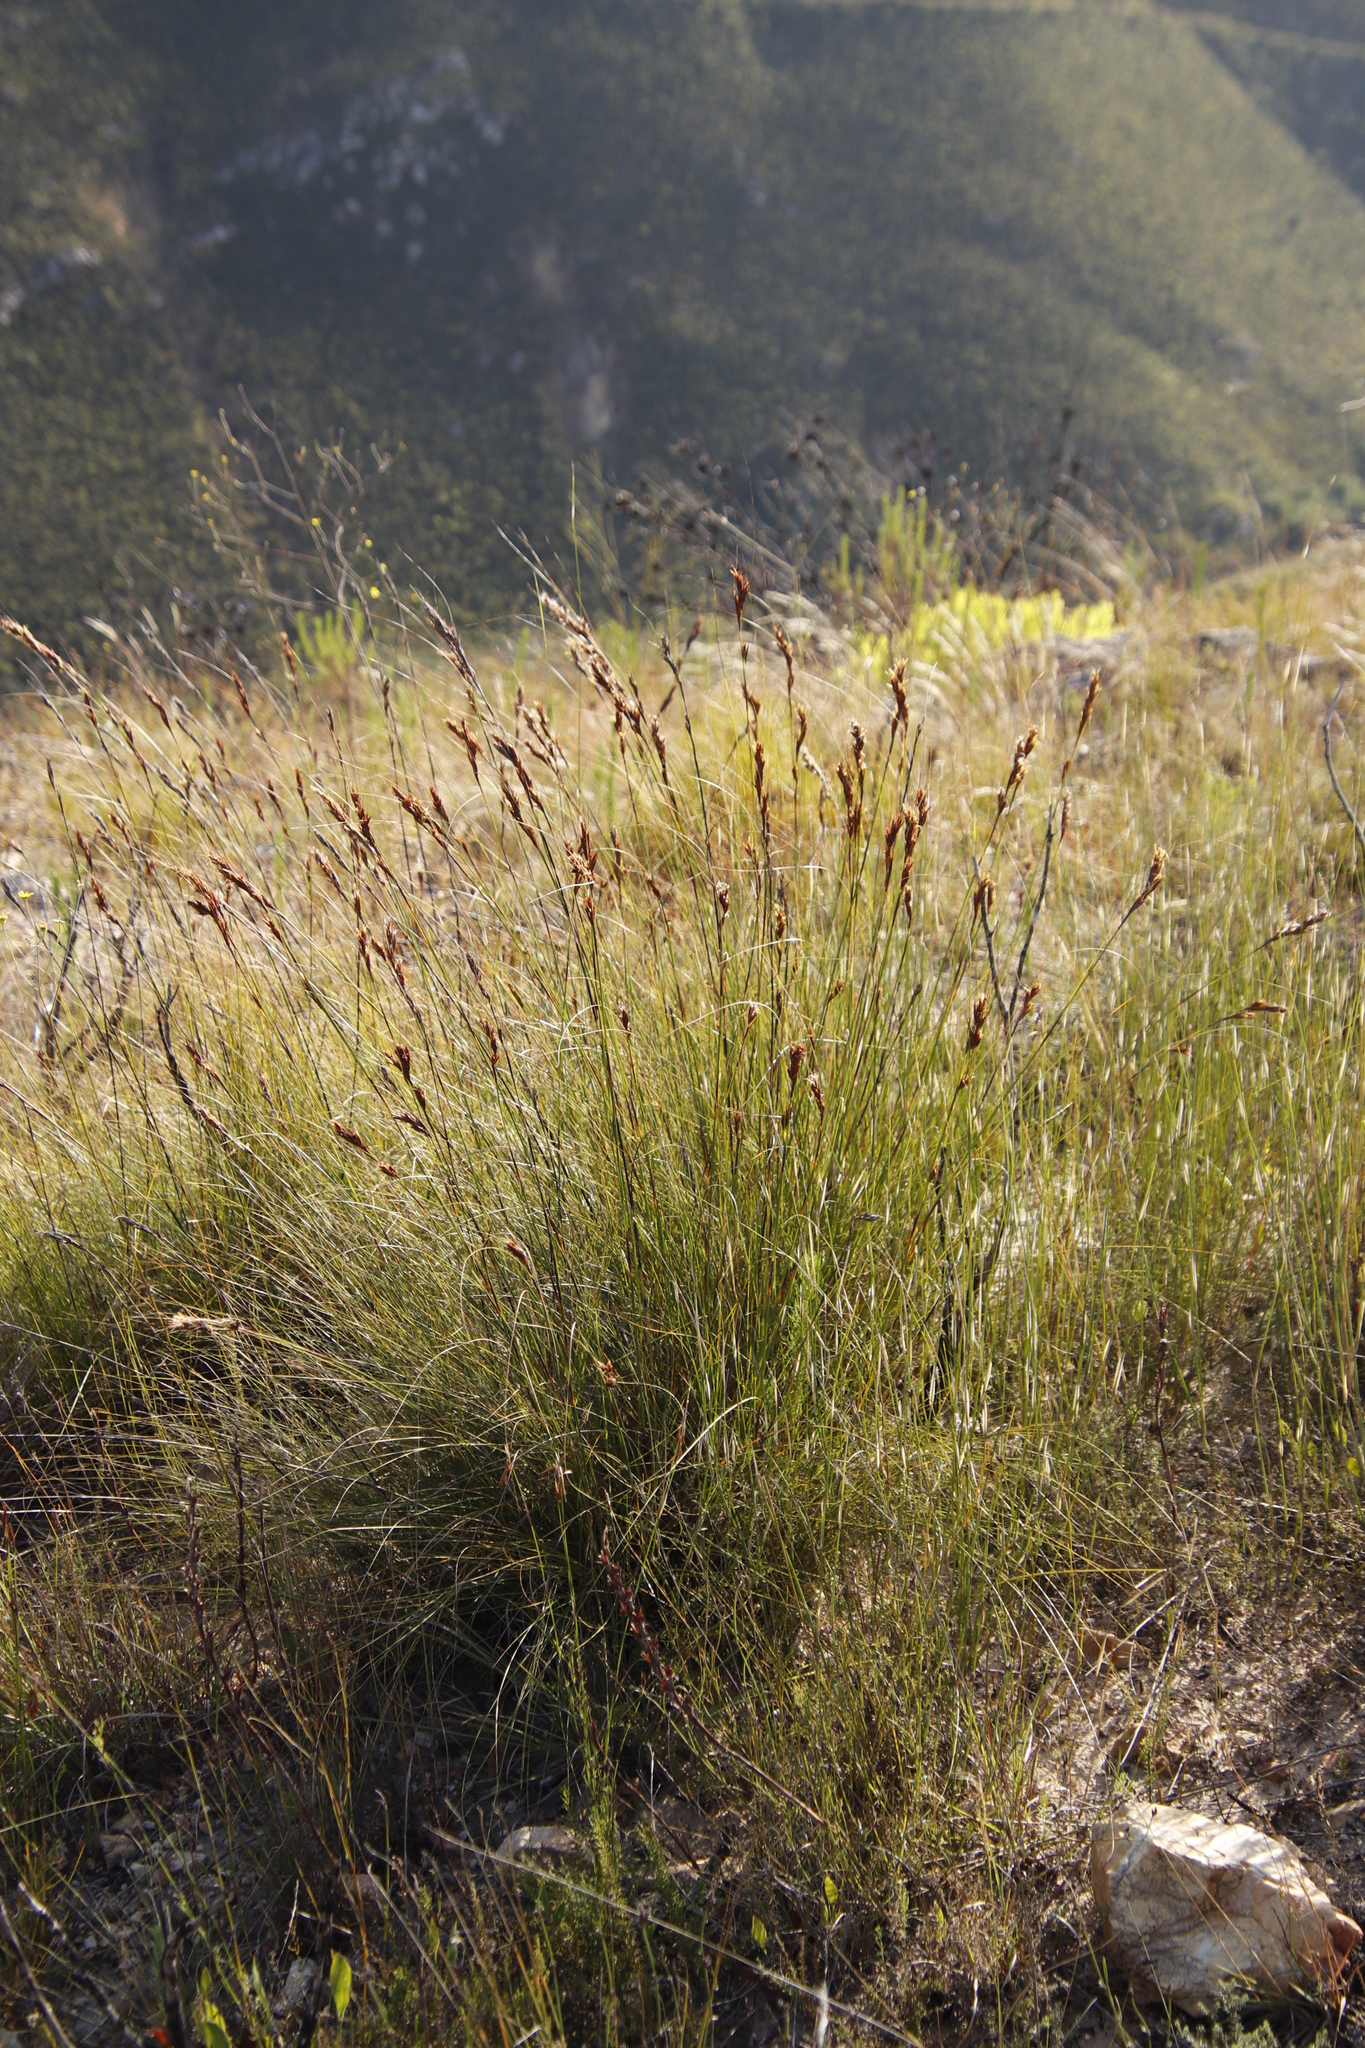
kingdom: Plantae
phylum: Tracheophyta
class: Liliopsida
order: Poales
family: Cyperaceae
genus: Tetraria
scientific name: Tetraria ustulata
